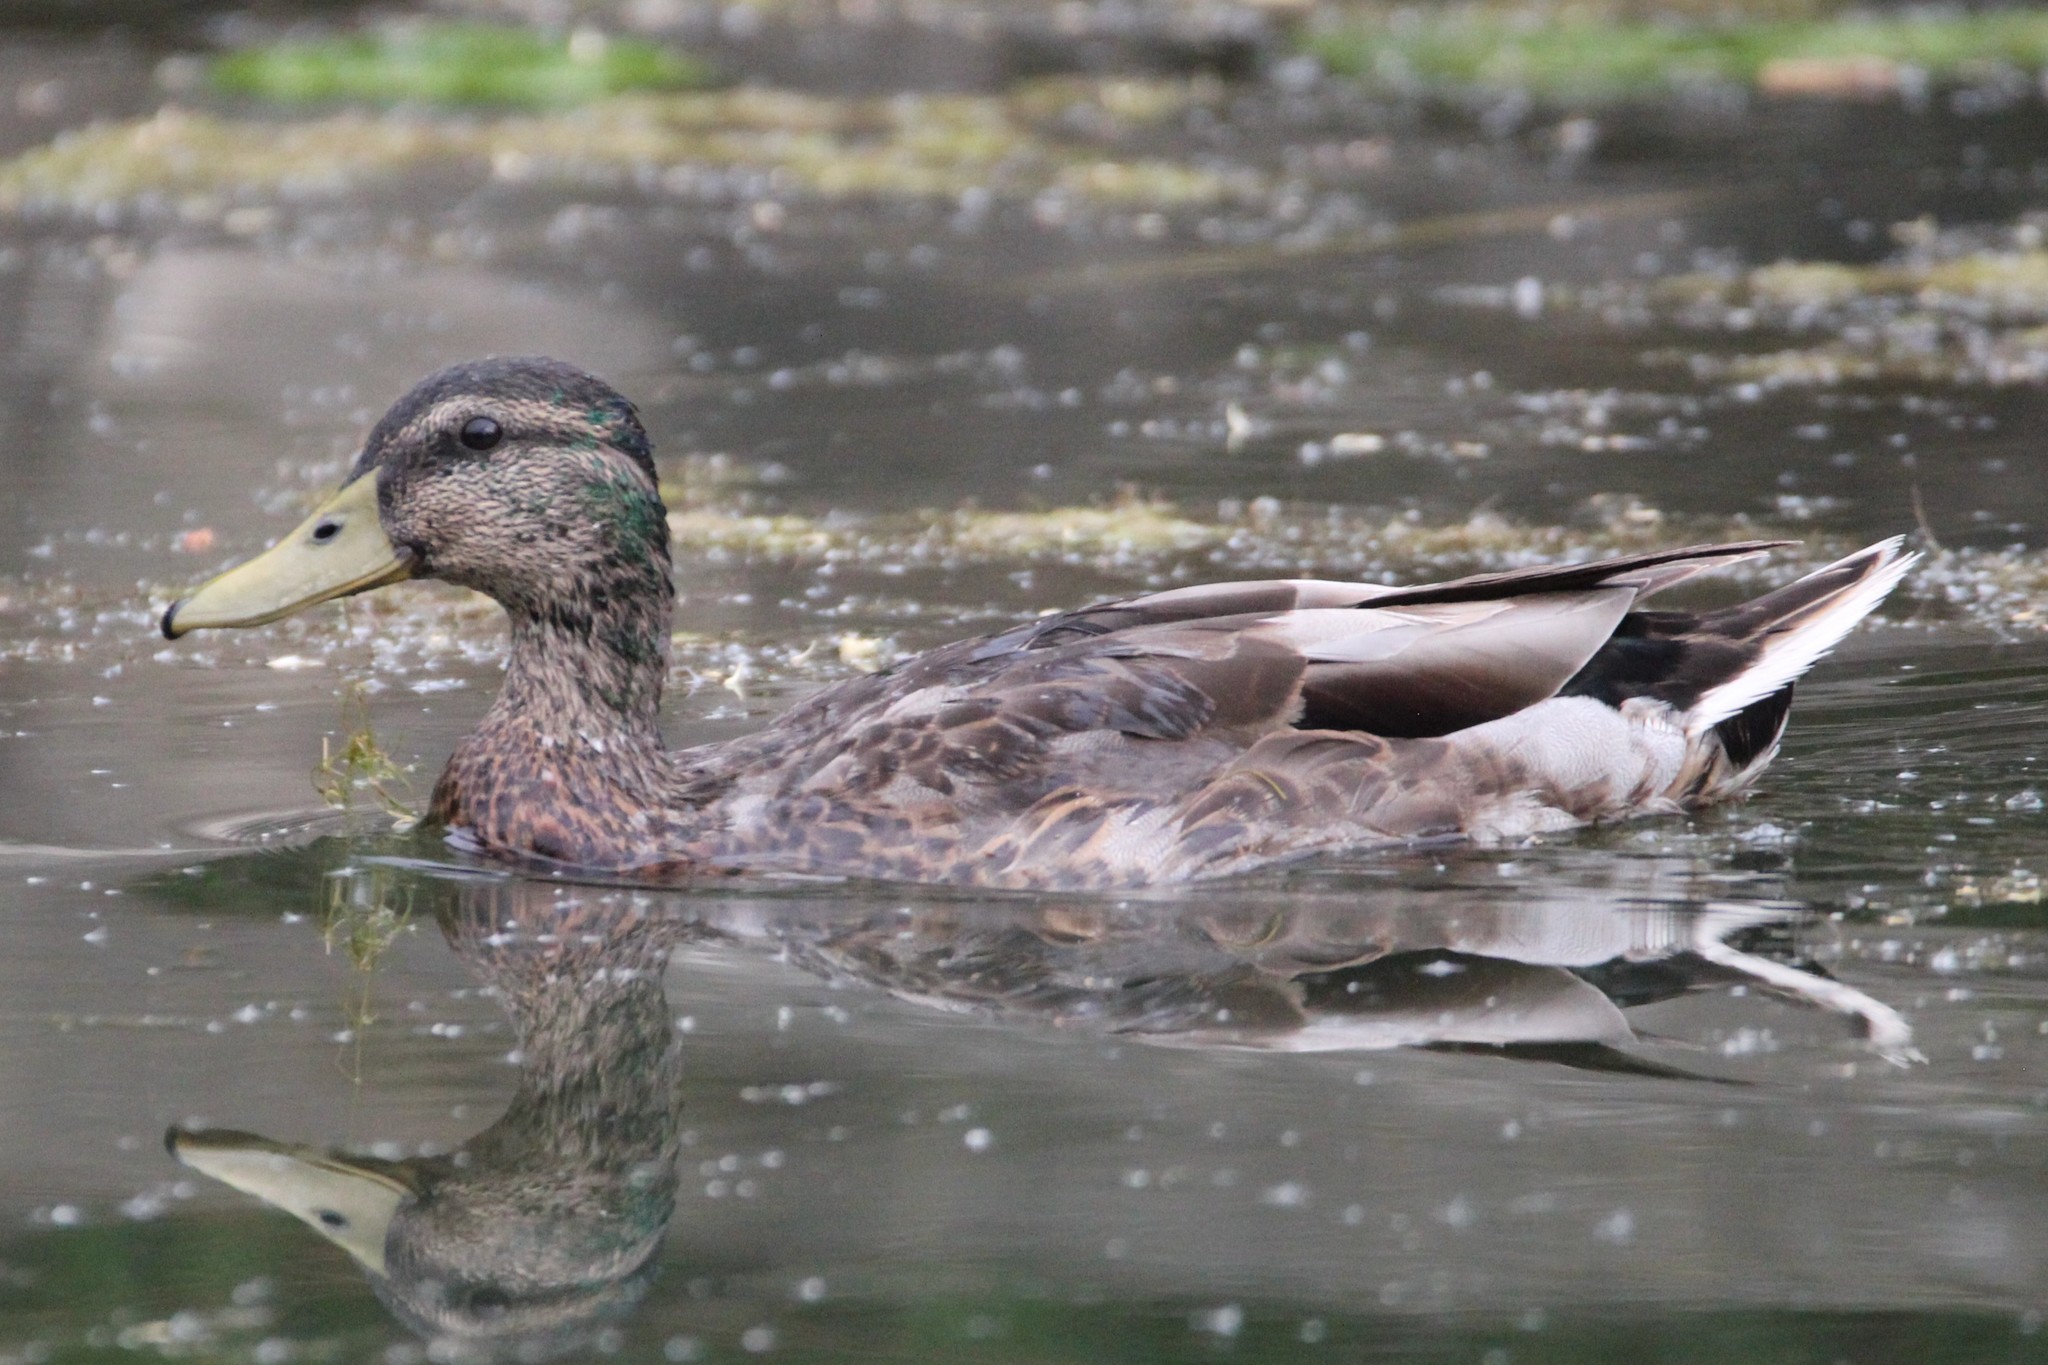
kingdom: Animalia
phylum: Chordata
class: Aves
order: Anseriformes
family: Anatidae
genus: Anas
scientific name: Anas platyrhynchos
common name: Mallard
